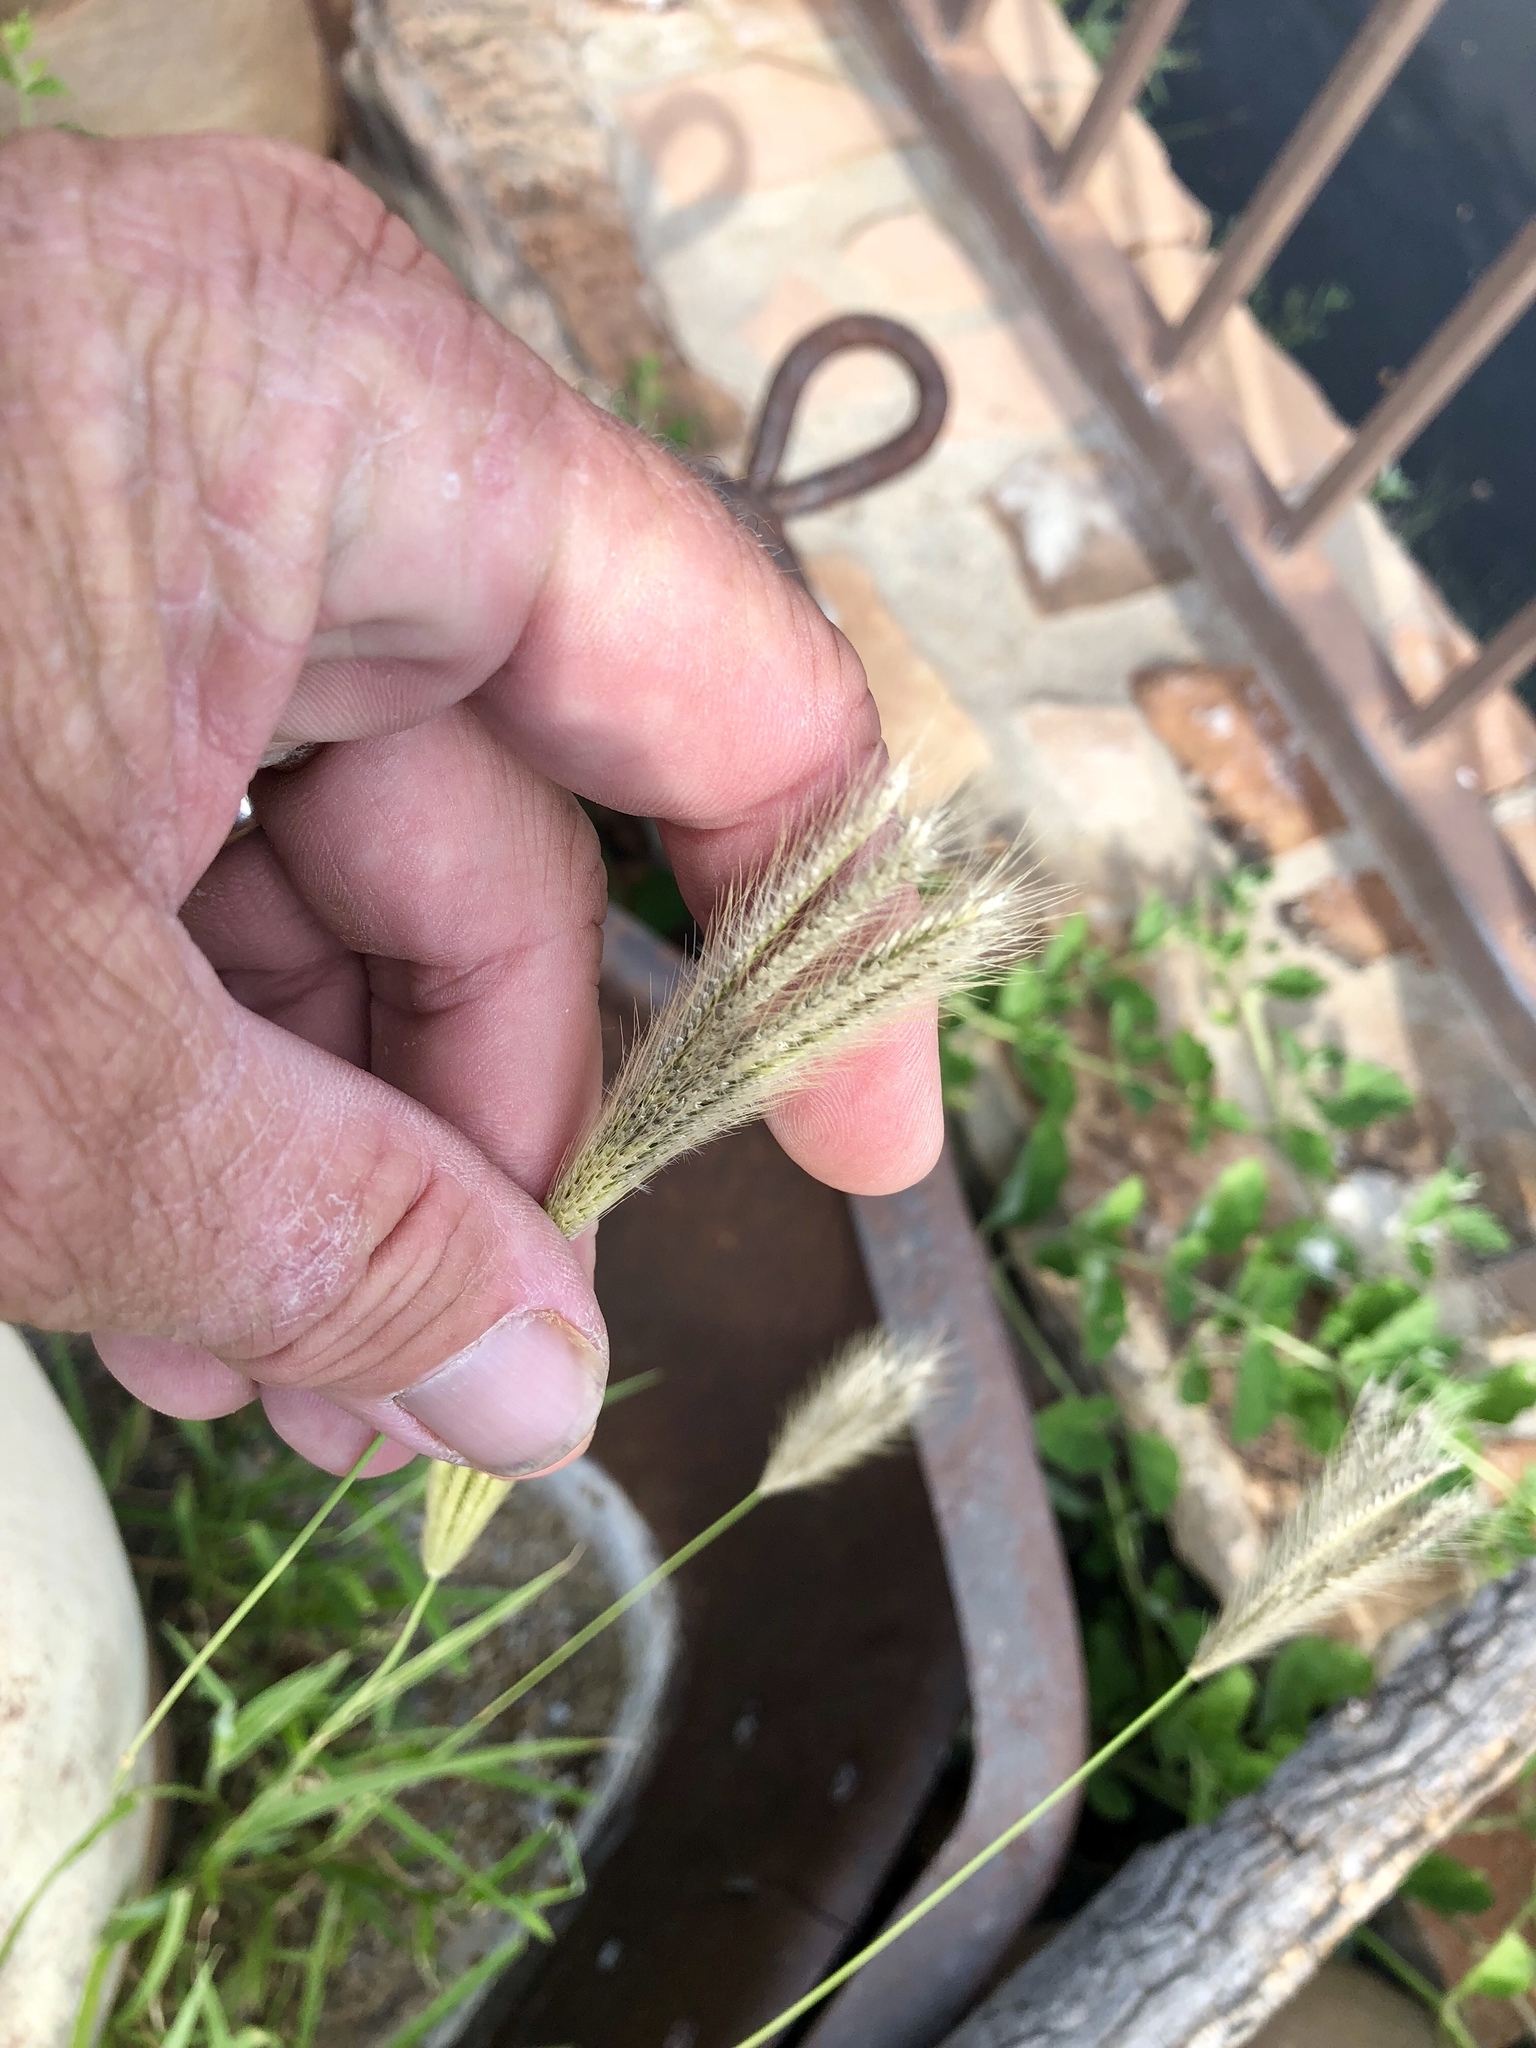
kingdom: Plantae
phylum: Tracheophyta
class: Liliopsida
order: Poales
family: Poaceae
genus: Chloris
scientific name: Chloris virgata
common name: Feathery rhodes-grass
